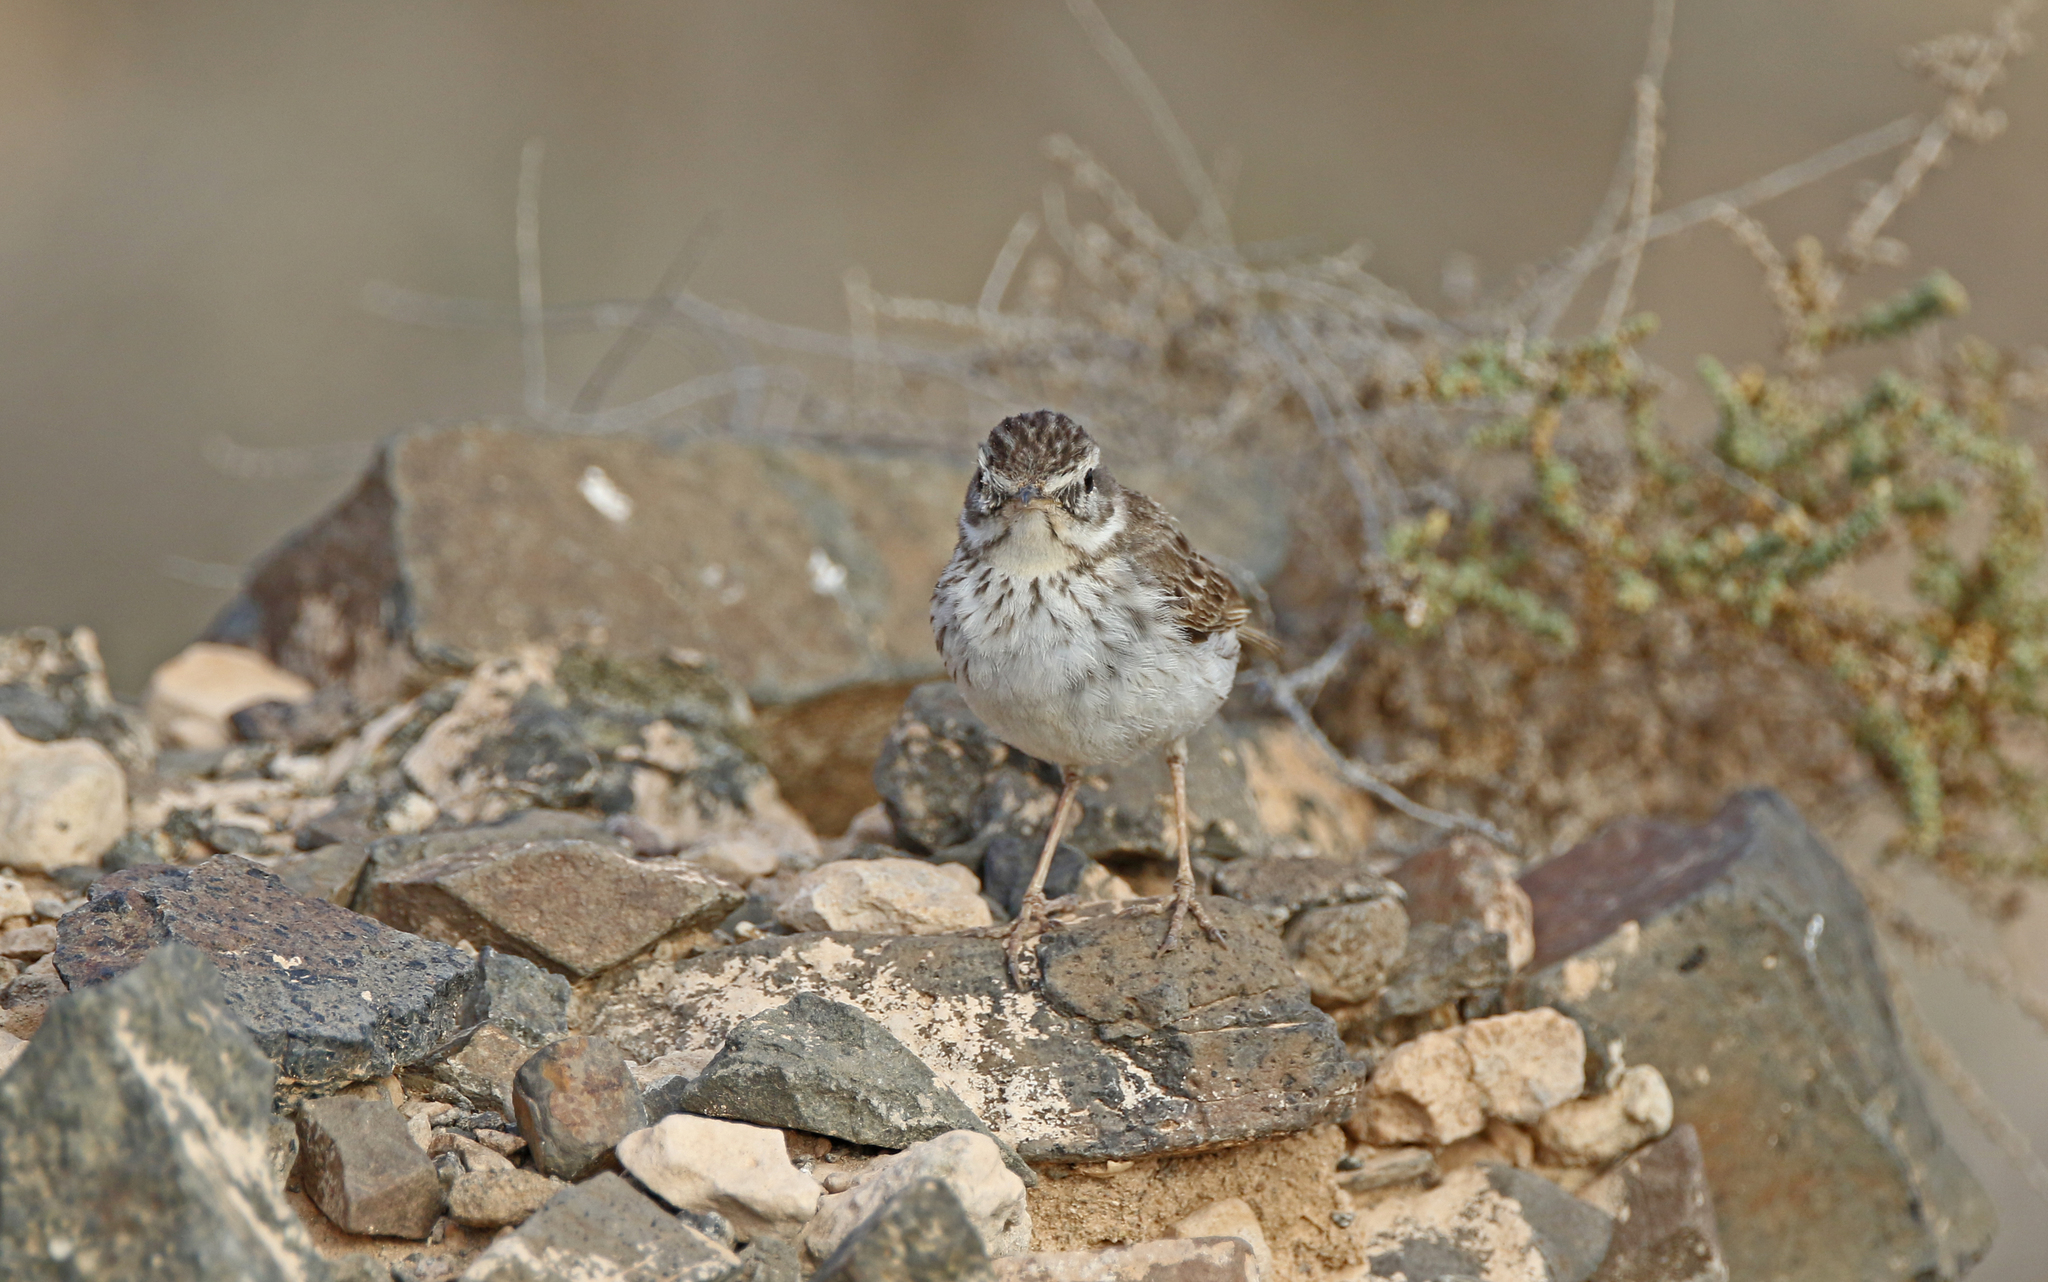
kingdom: Animalia
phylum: Chordata
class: Aves
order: Passeriformes
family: Motacillidae
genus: Anthus
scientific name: Anthus berthelotii
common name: Berthelot's pipit
